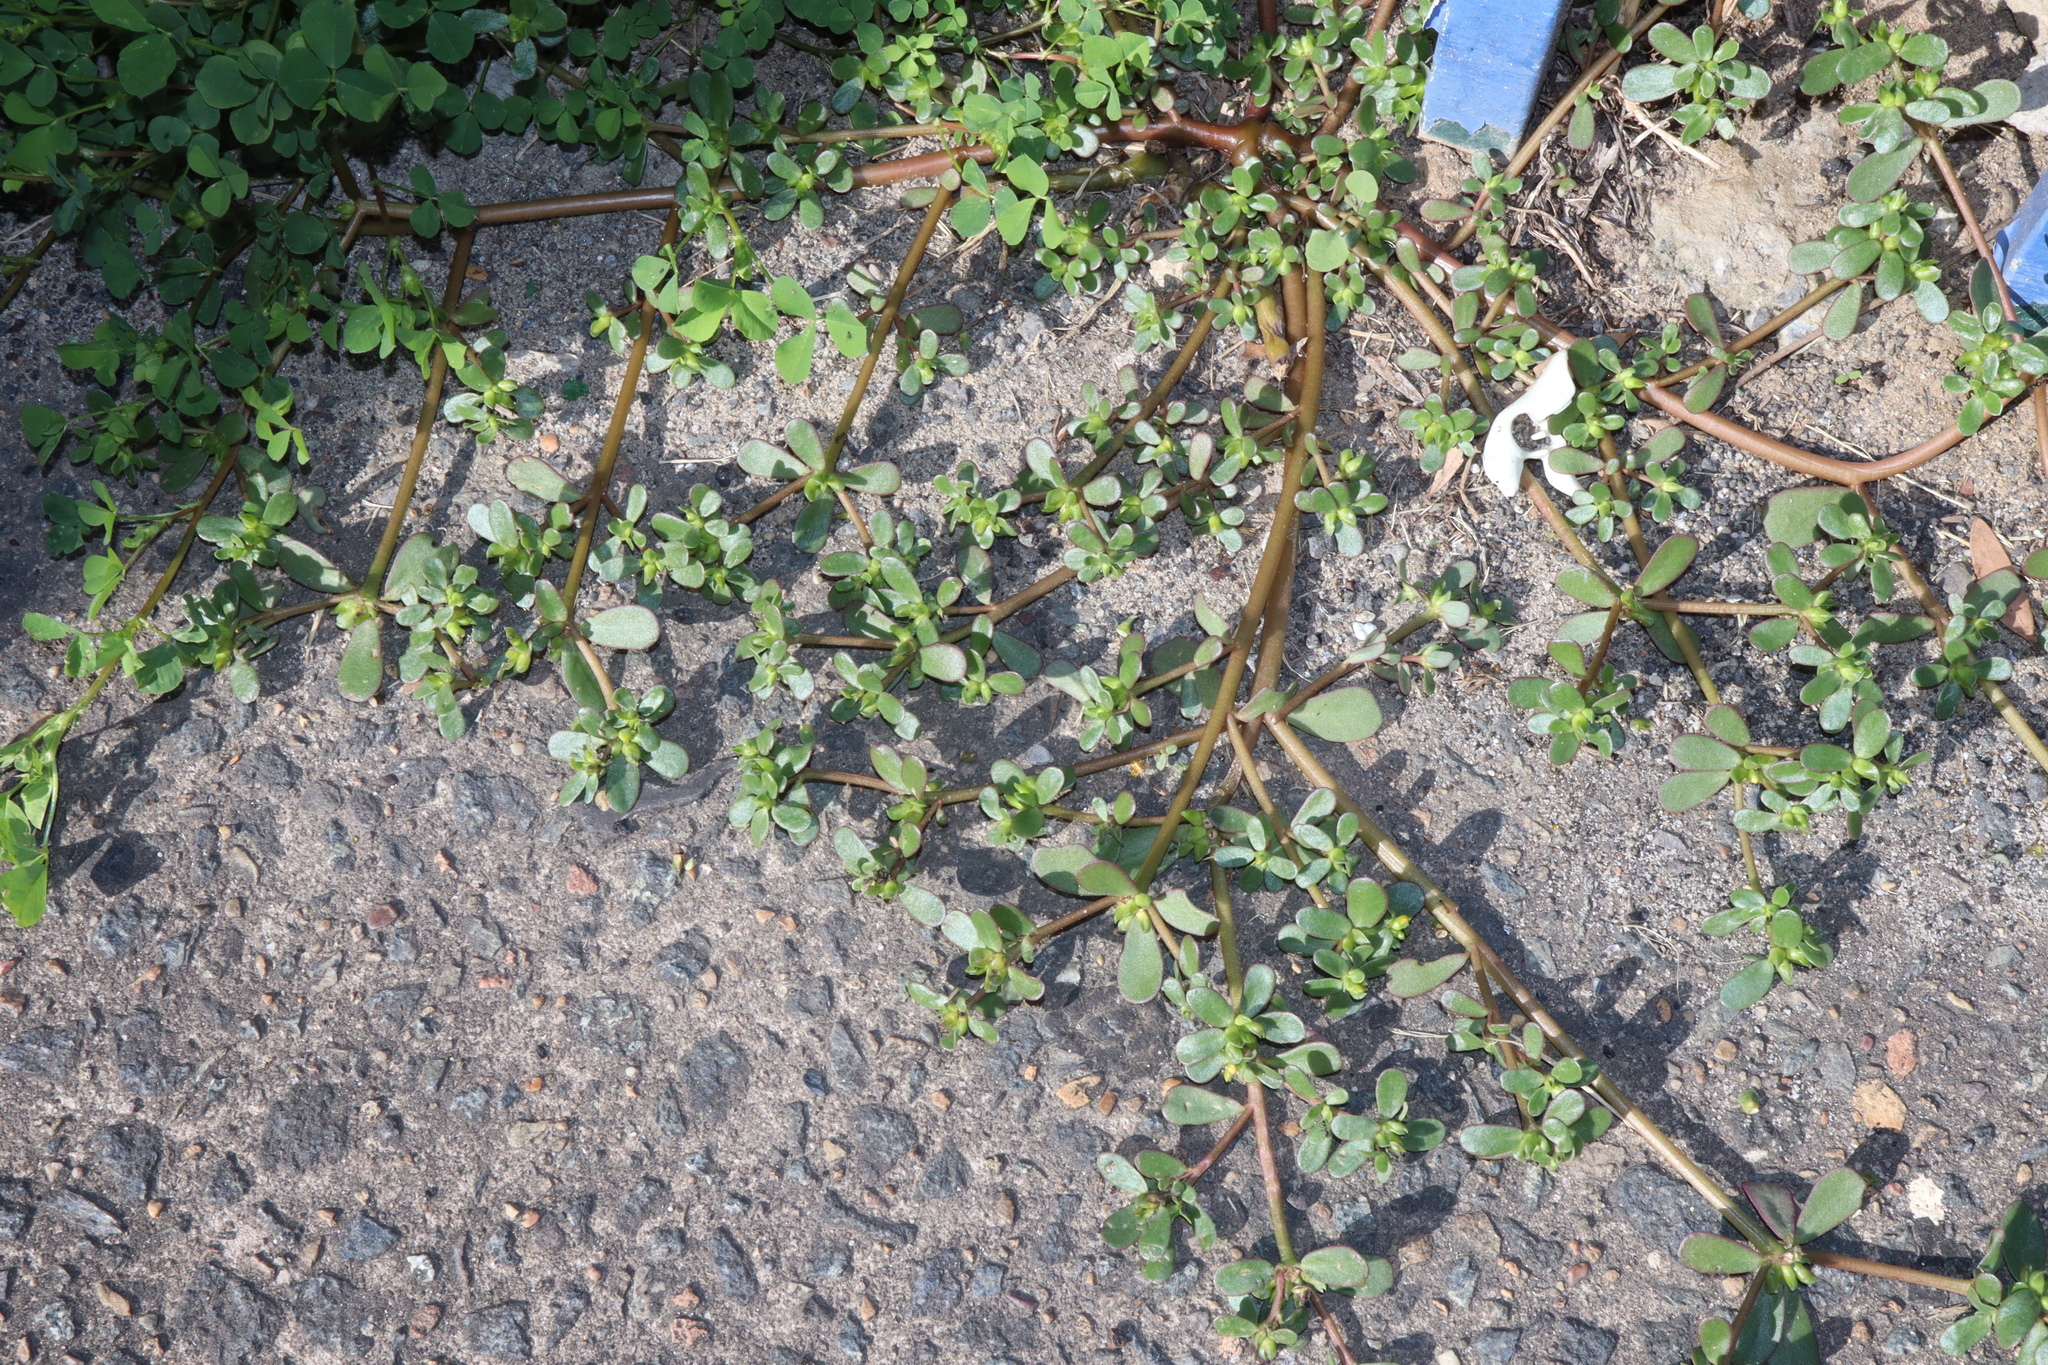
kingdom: Plantae
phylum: Tracheophyta
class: Magnoliopsida
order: Caryophyllales
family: Portulacaceae
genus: Portulaca
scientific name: Portulaca oleracea
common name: Common purslane
